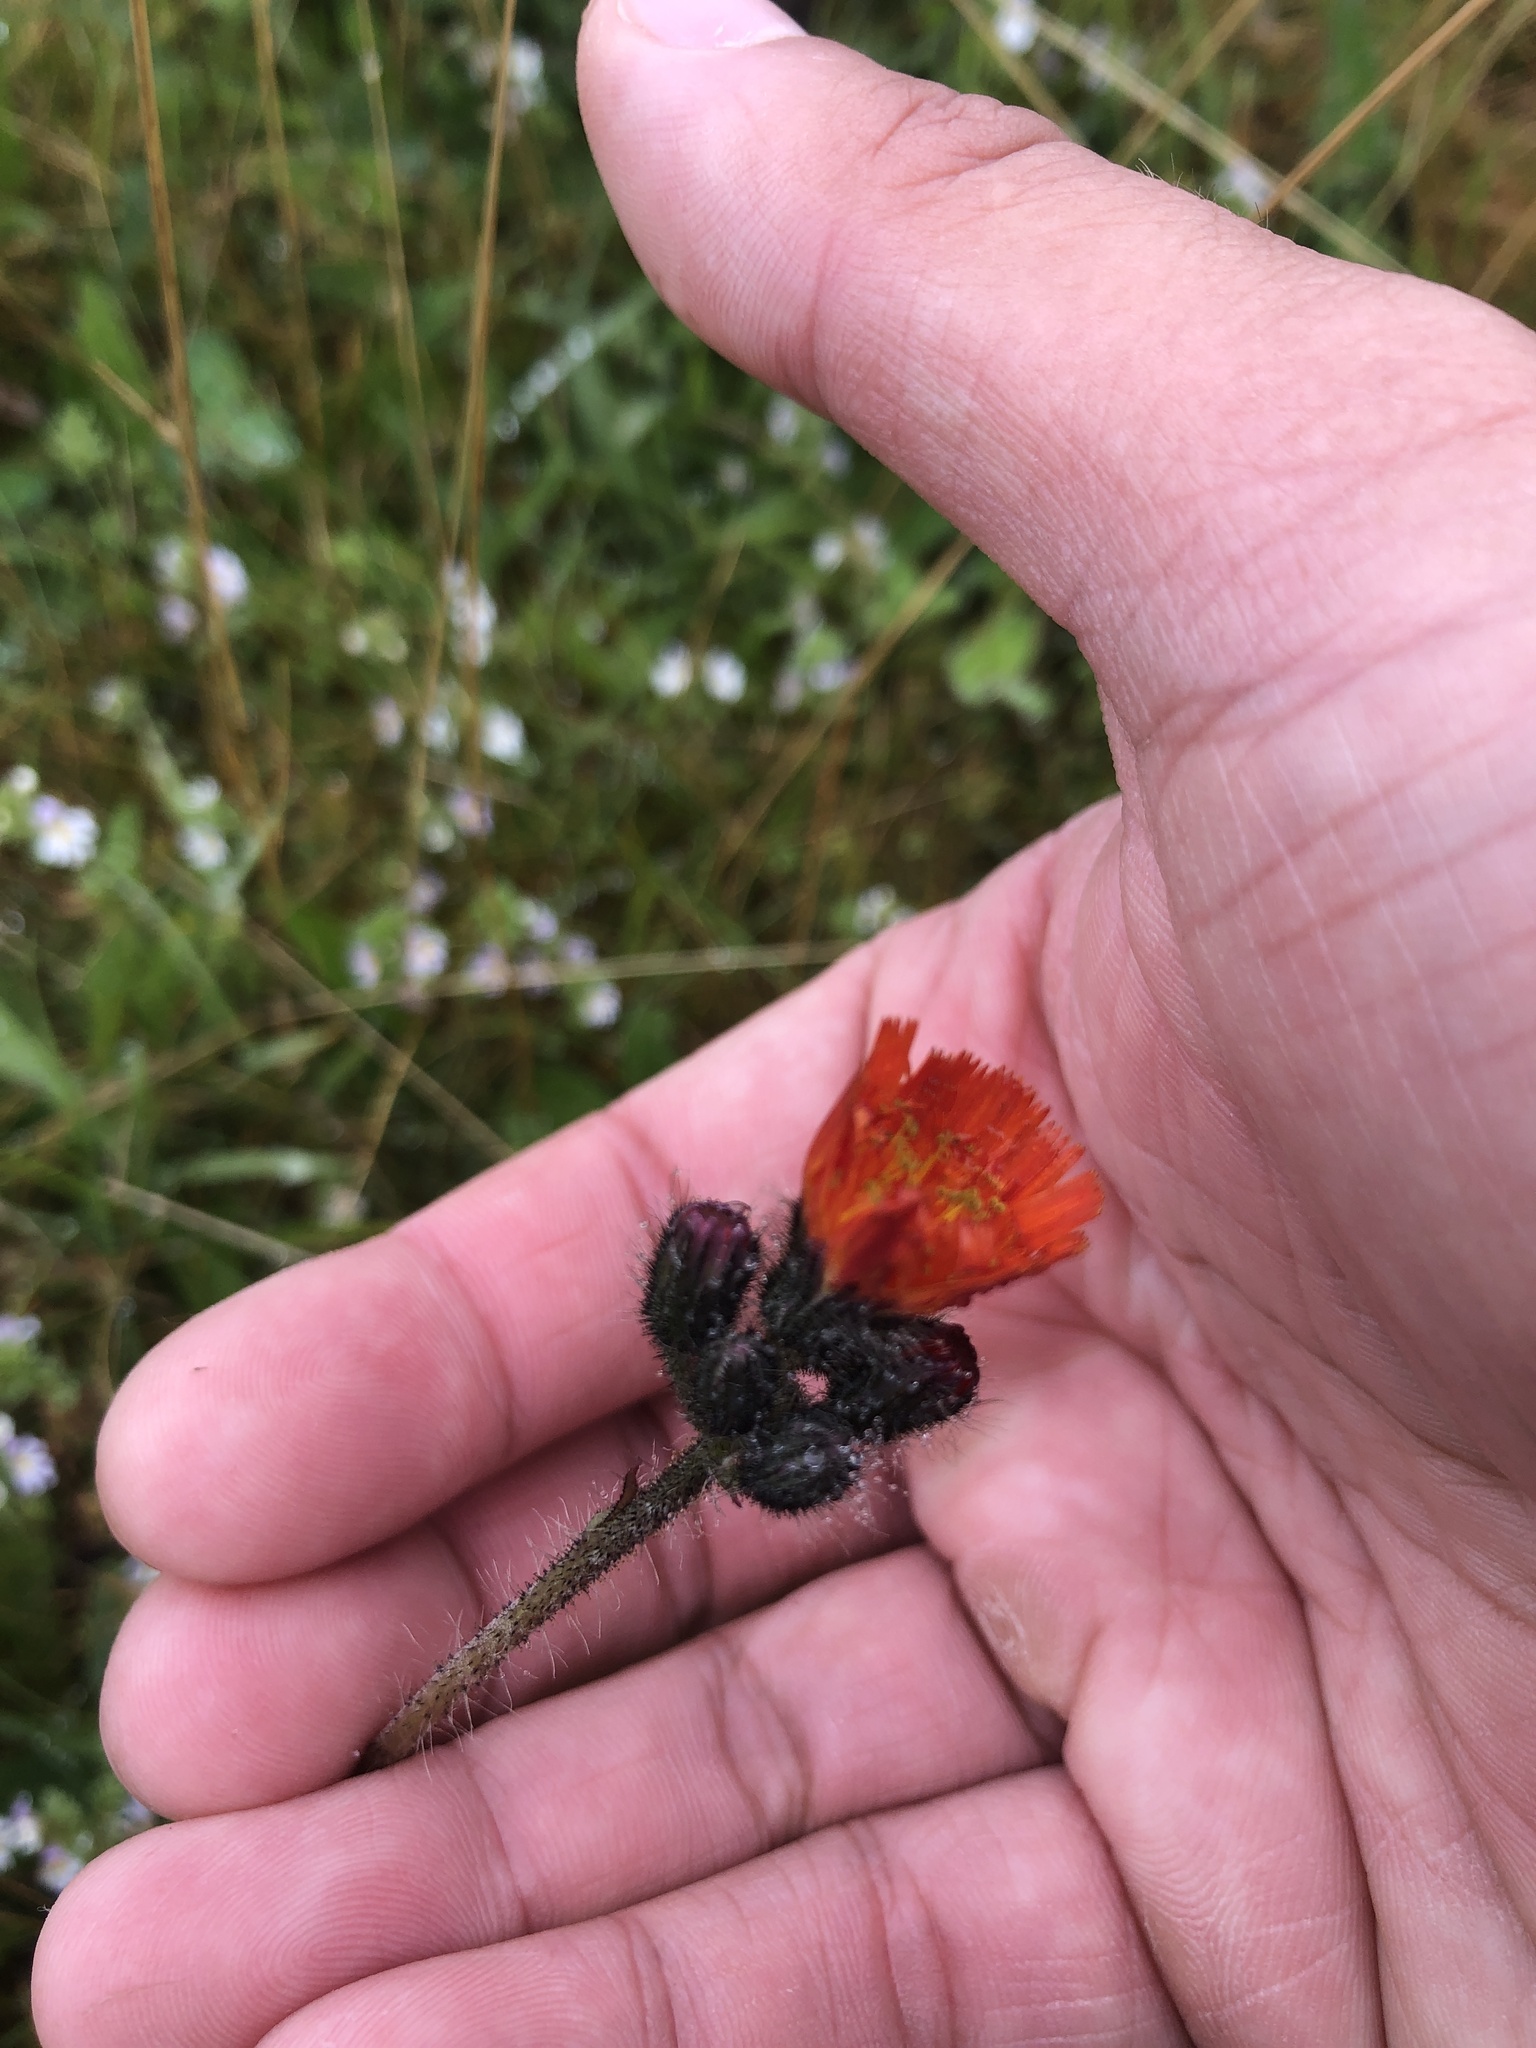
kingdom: Plantae
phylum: Tracheophyta
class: Magnoliopsida
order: Asterales
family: Asteraceae
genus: Pilosella
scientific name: Pilosella aurantiaca
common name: Fox-and-cubs
